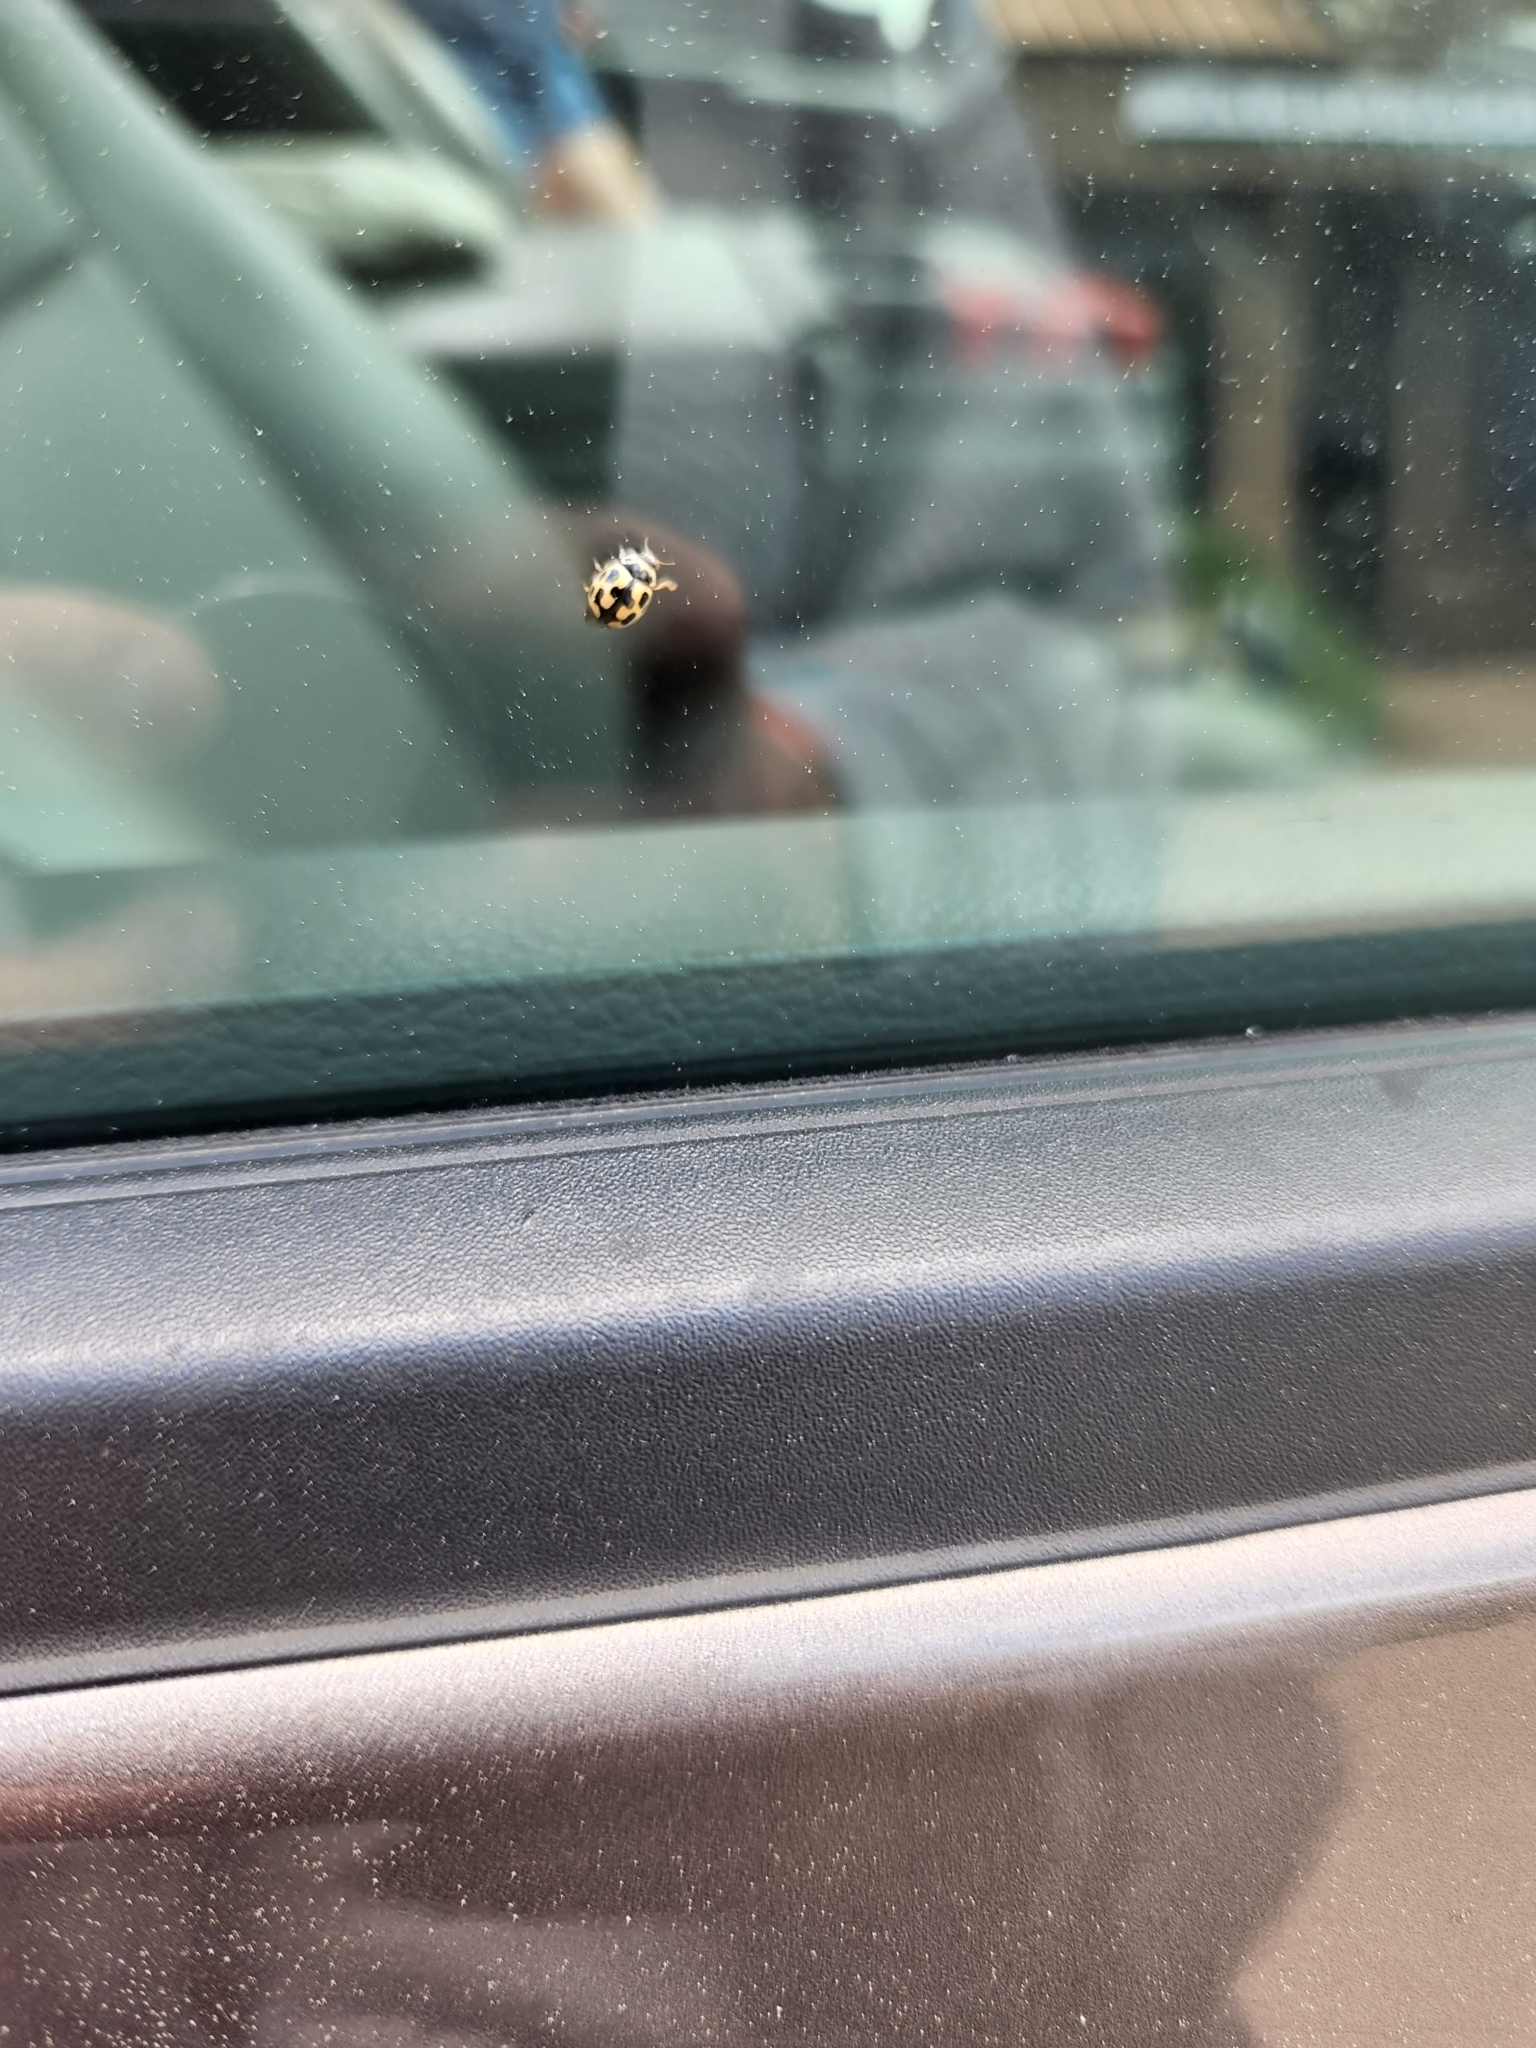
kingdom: Animalia
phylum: Arthropoda
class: Insecta
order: Coleoptera
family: Coccinellidae
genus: Propylaea
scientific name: Propylaea quatuordecimpunctata
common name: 14-spotted ladybird beetle
